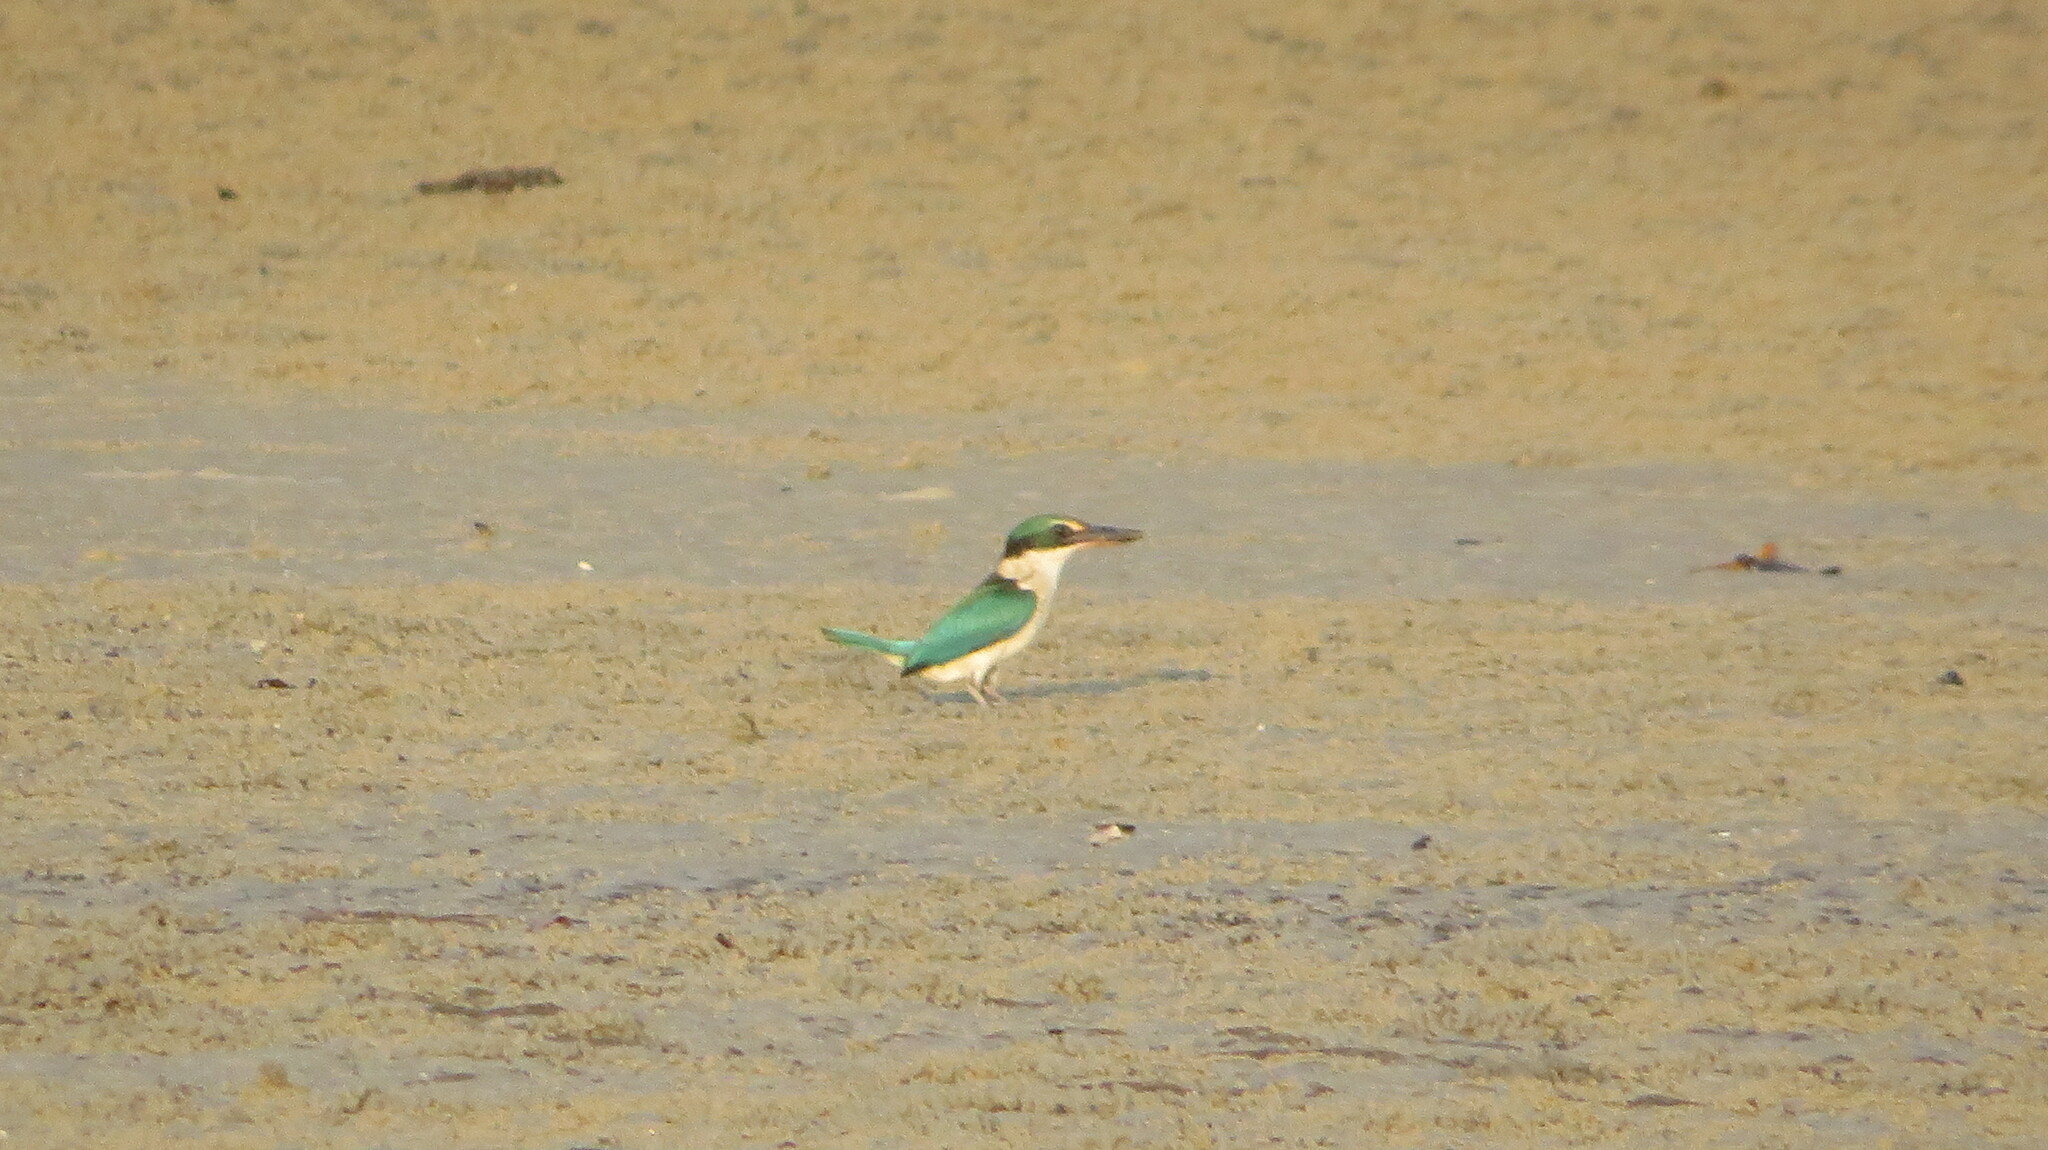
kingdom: Animalia
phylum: Chordata
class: Aves
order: Coraciiformes
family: Alcedinidae
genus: Todiramphus
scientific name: Todiramphus chloris
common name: Collared kingfisher
